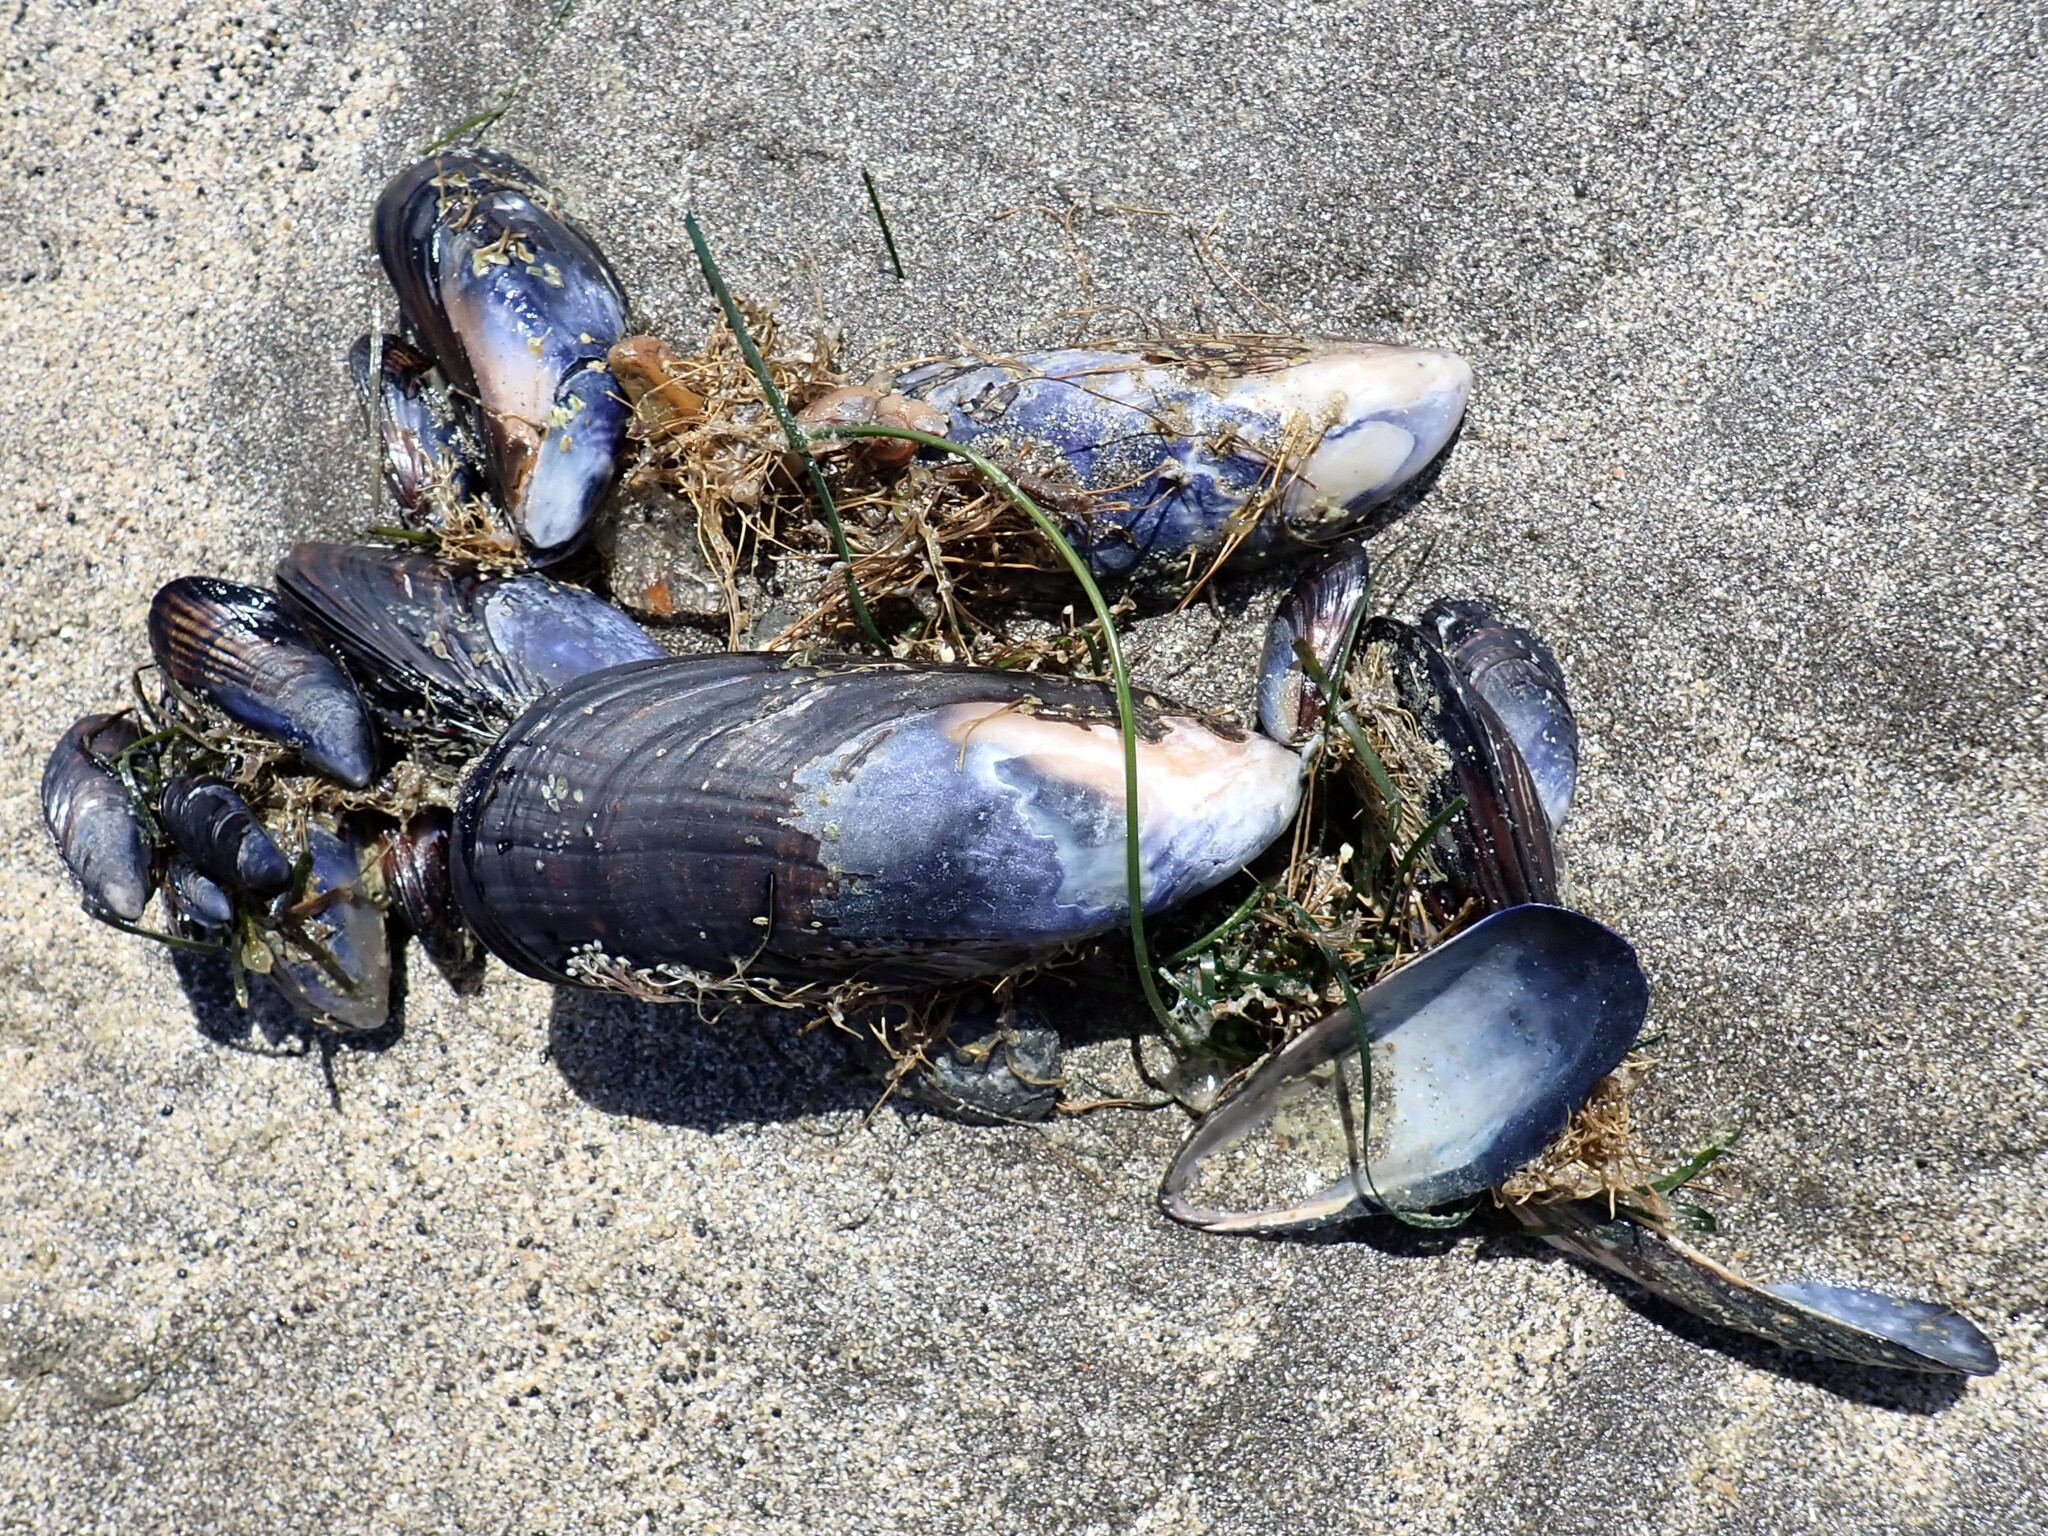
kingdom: Animalia
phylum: Mollusca
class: Bivalvia
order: Mytilida
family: Mytilidae
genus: Mytilus
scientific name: Mytilus californianus
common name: California mussel
